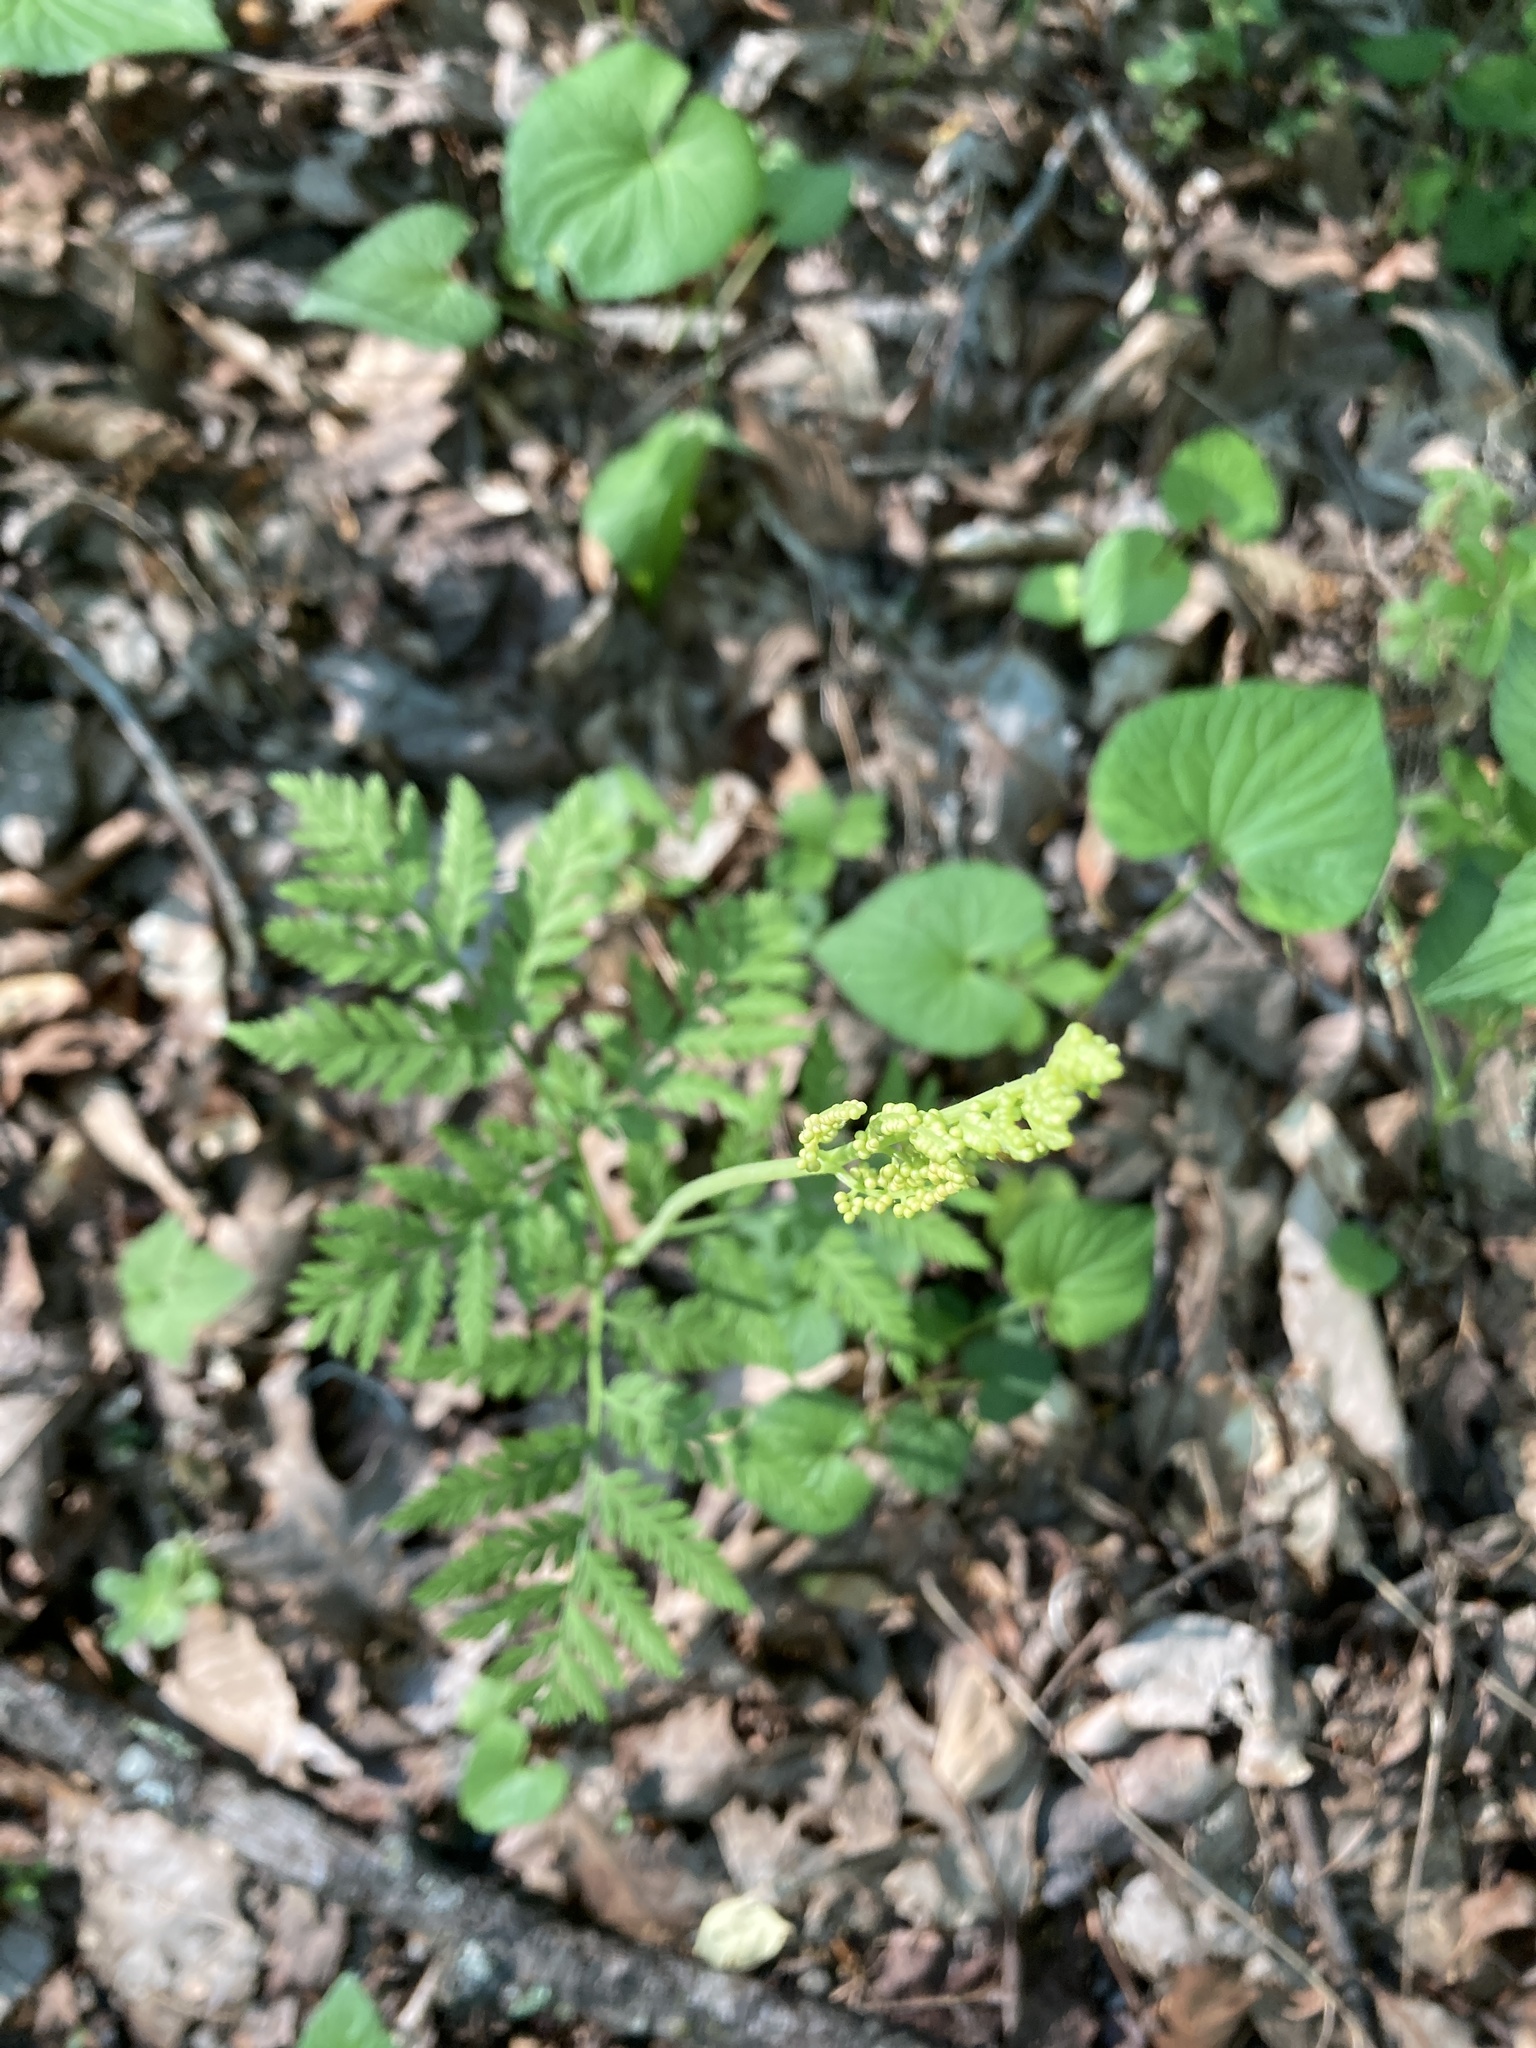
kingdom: Plantae
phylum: Tracheophyta
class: Polypodiopsida
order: Ophioglossales
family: Ophioglossaceae
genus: Botrypus
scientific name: Botrypus virginianus
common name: Common grapefern
